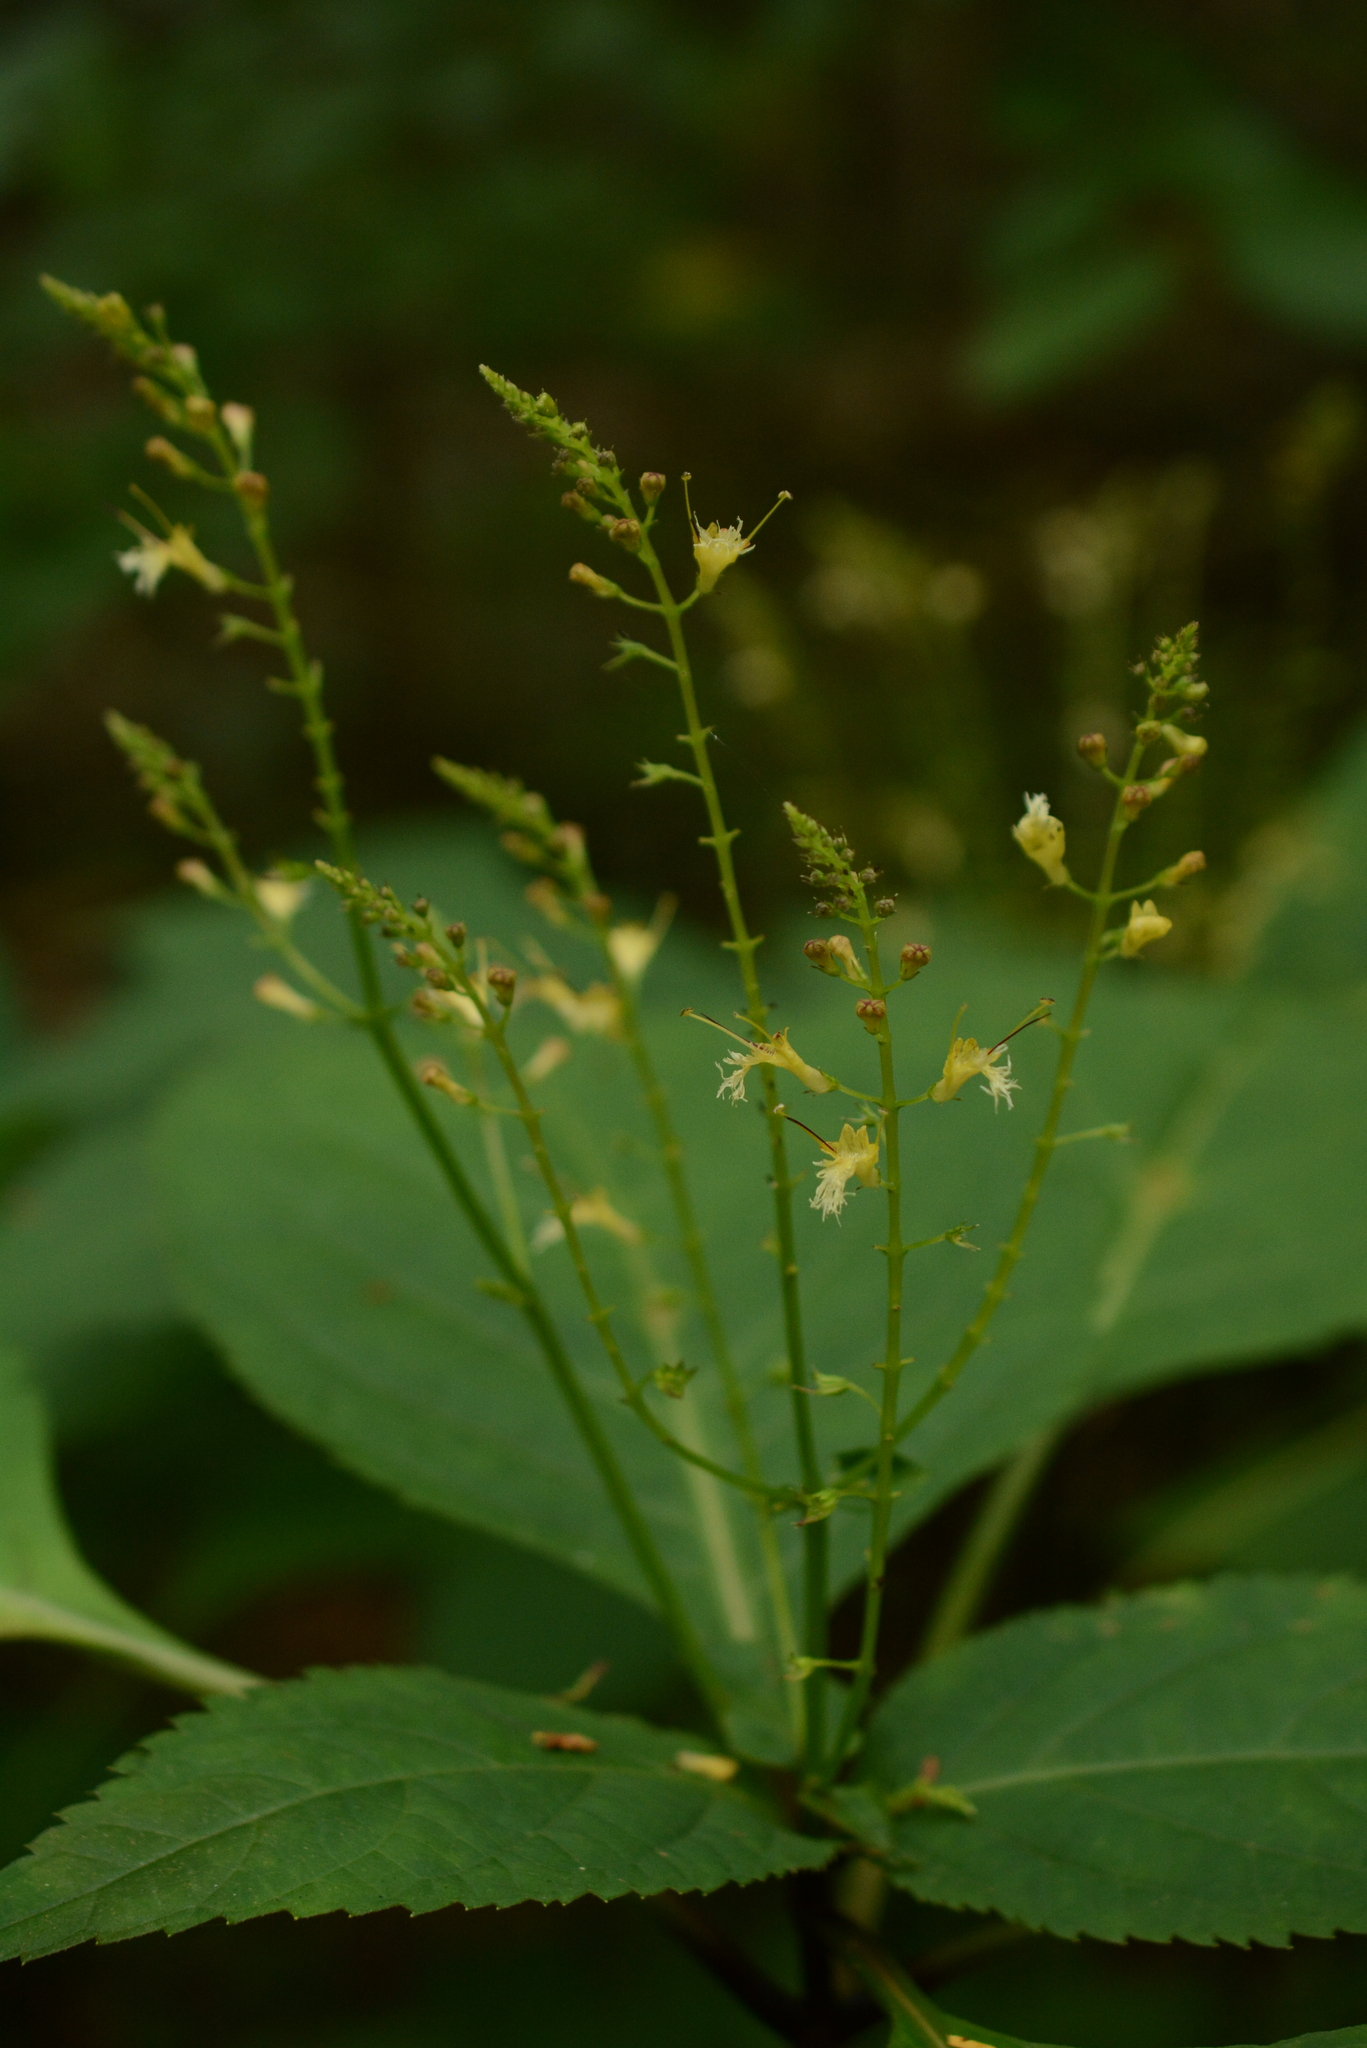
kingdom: Plantae
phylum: Tracheophyta
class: Magnoliopsida
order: Lamiales
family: Lamiaceae
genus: Collinsonia
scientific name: Collinsonia canadensis
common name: Northern horsebalm
